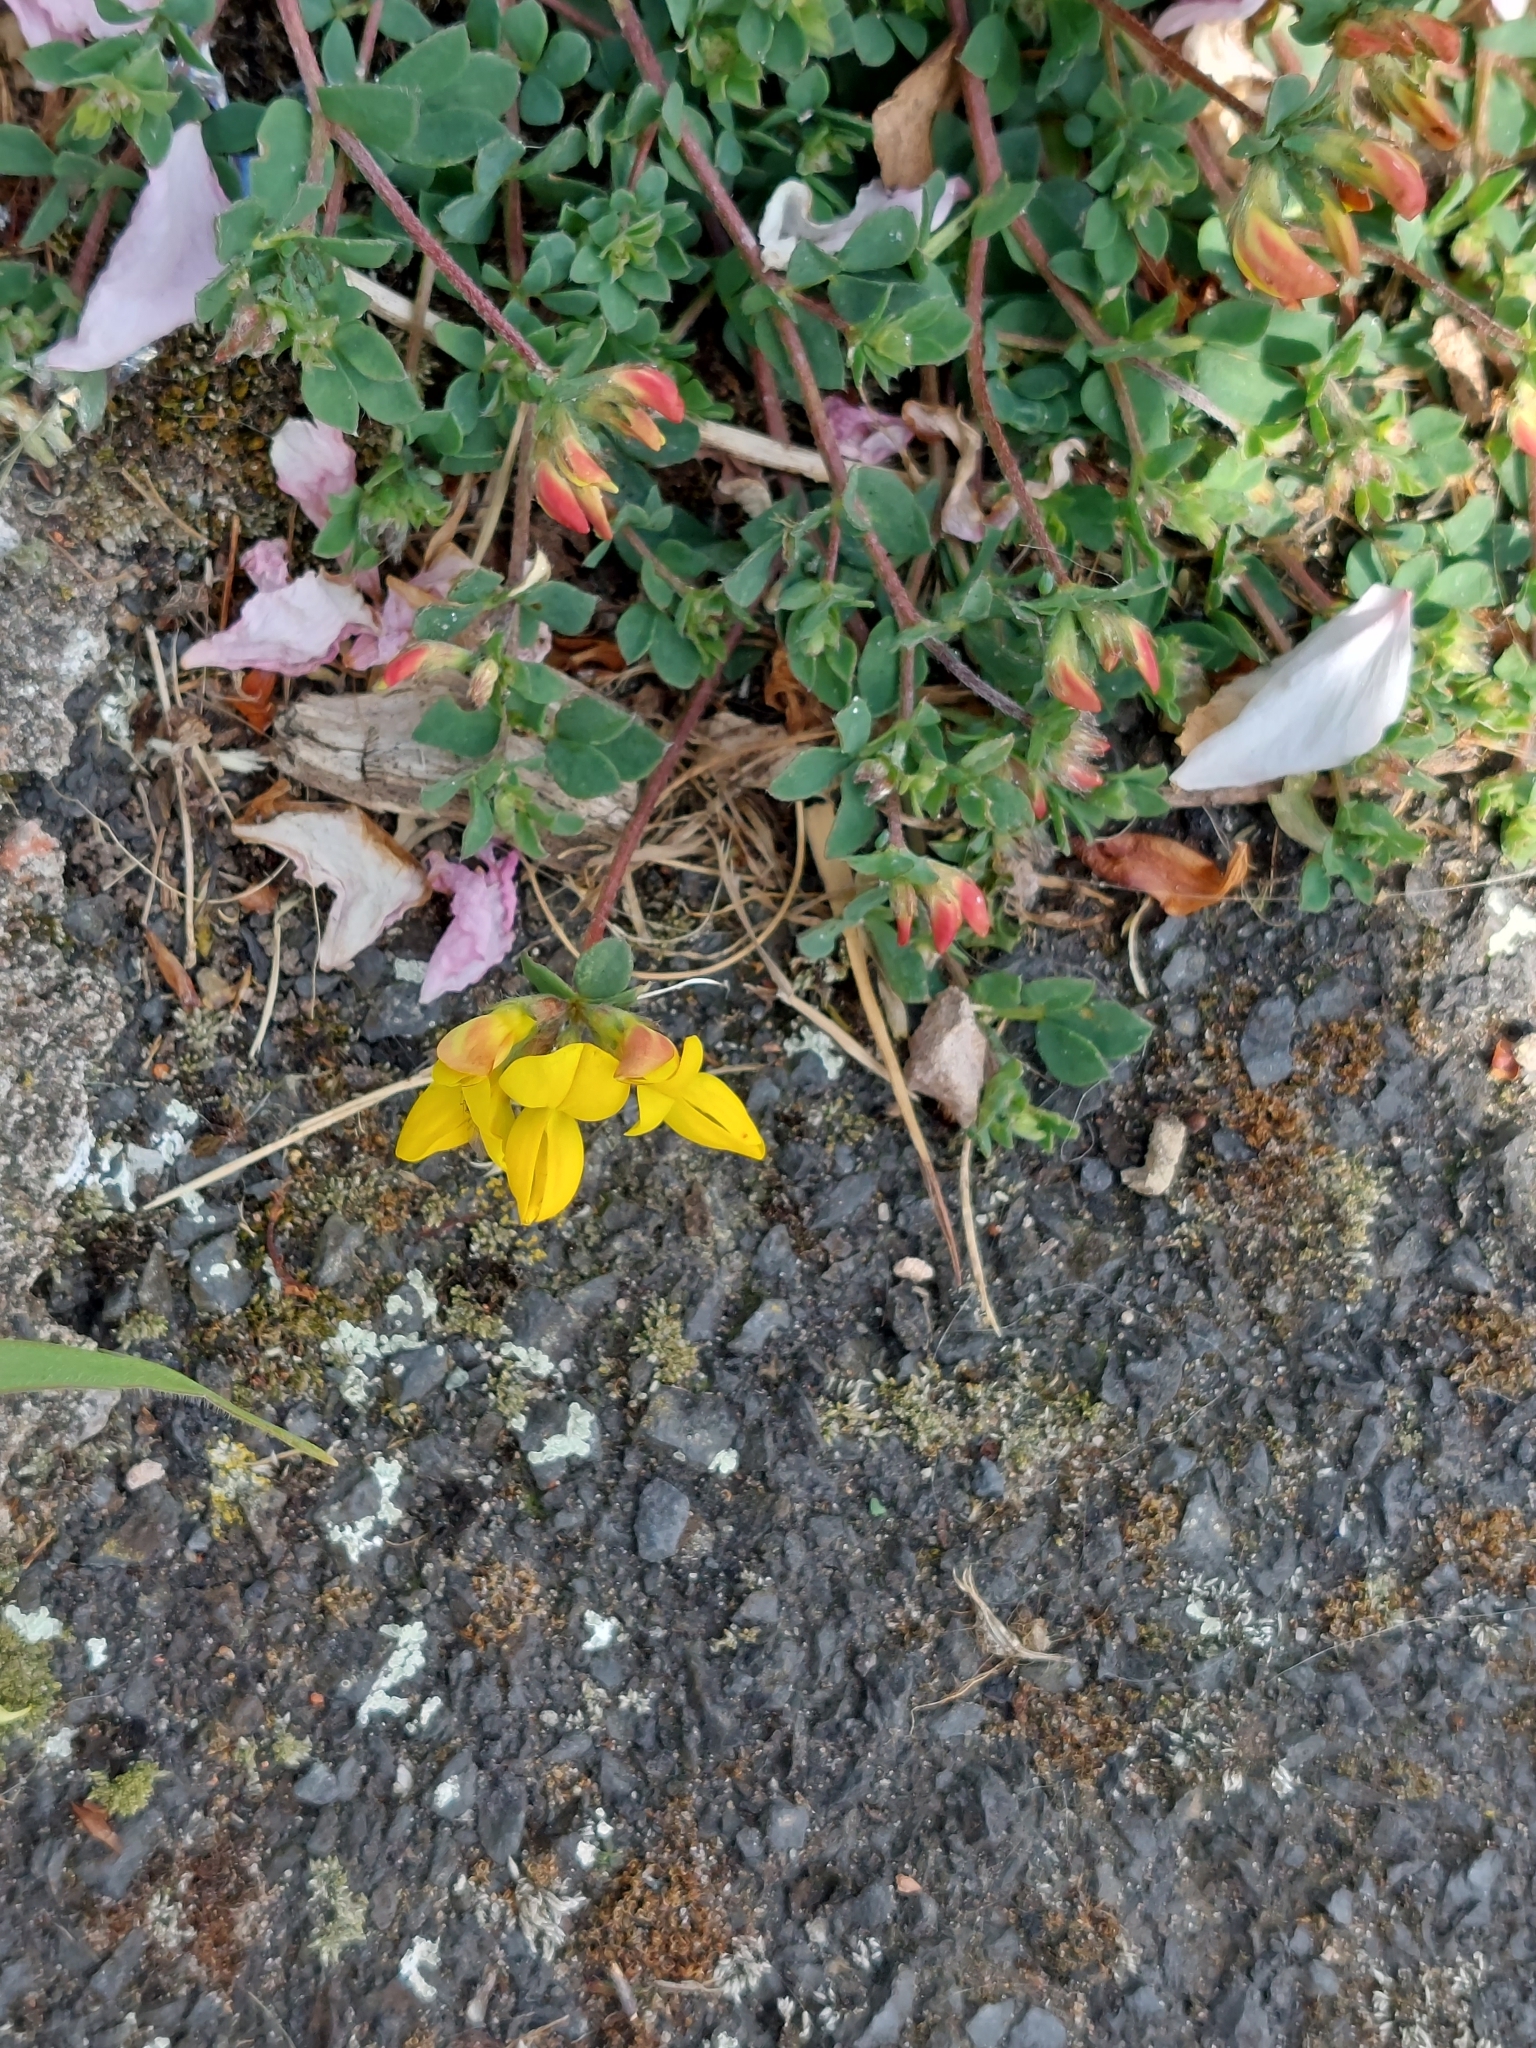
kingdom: Plantae
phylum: Tracheophyta
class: Magnoliopsida
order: Fabales
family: Fabaceae
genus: Lotus
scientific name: Lotus corniculatus
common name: Common bird's-foot-trefoil
